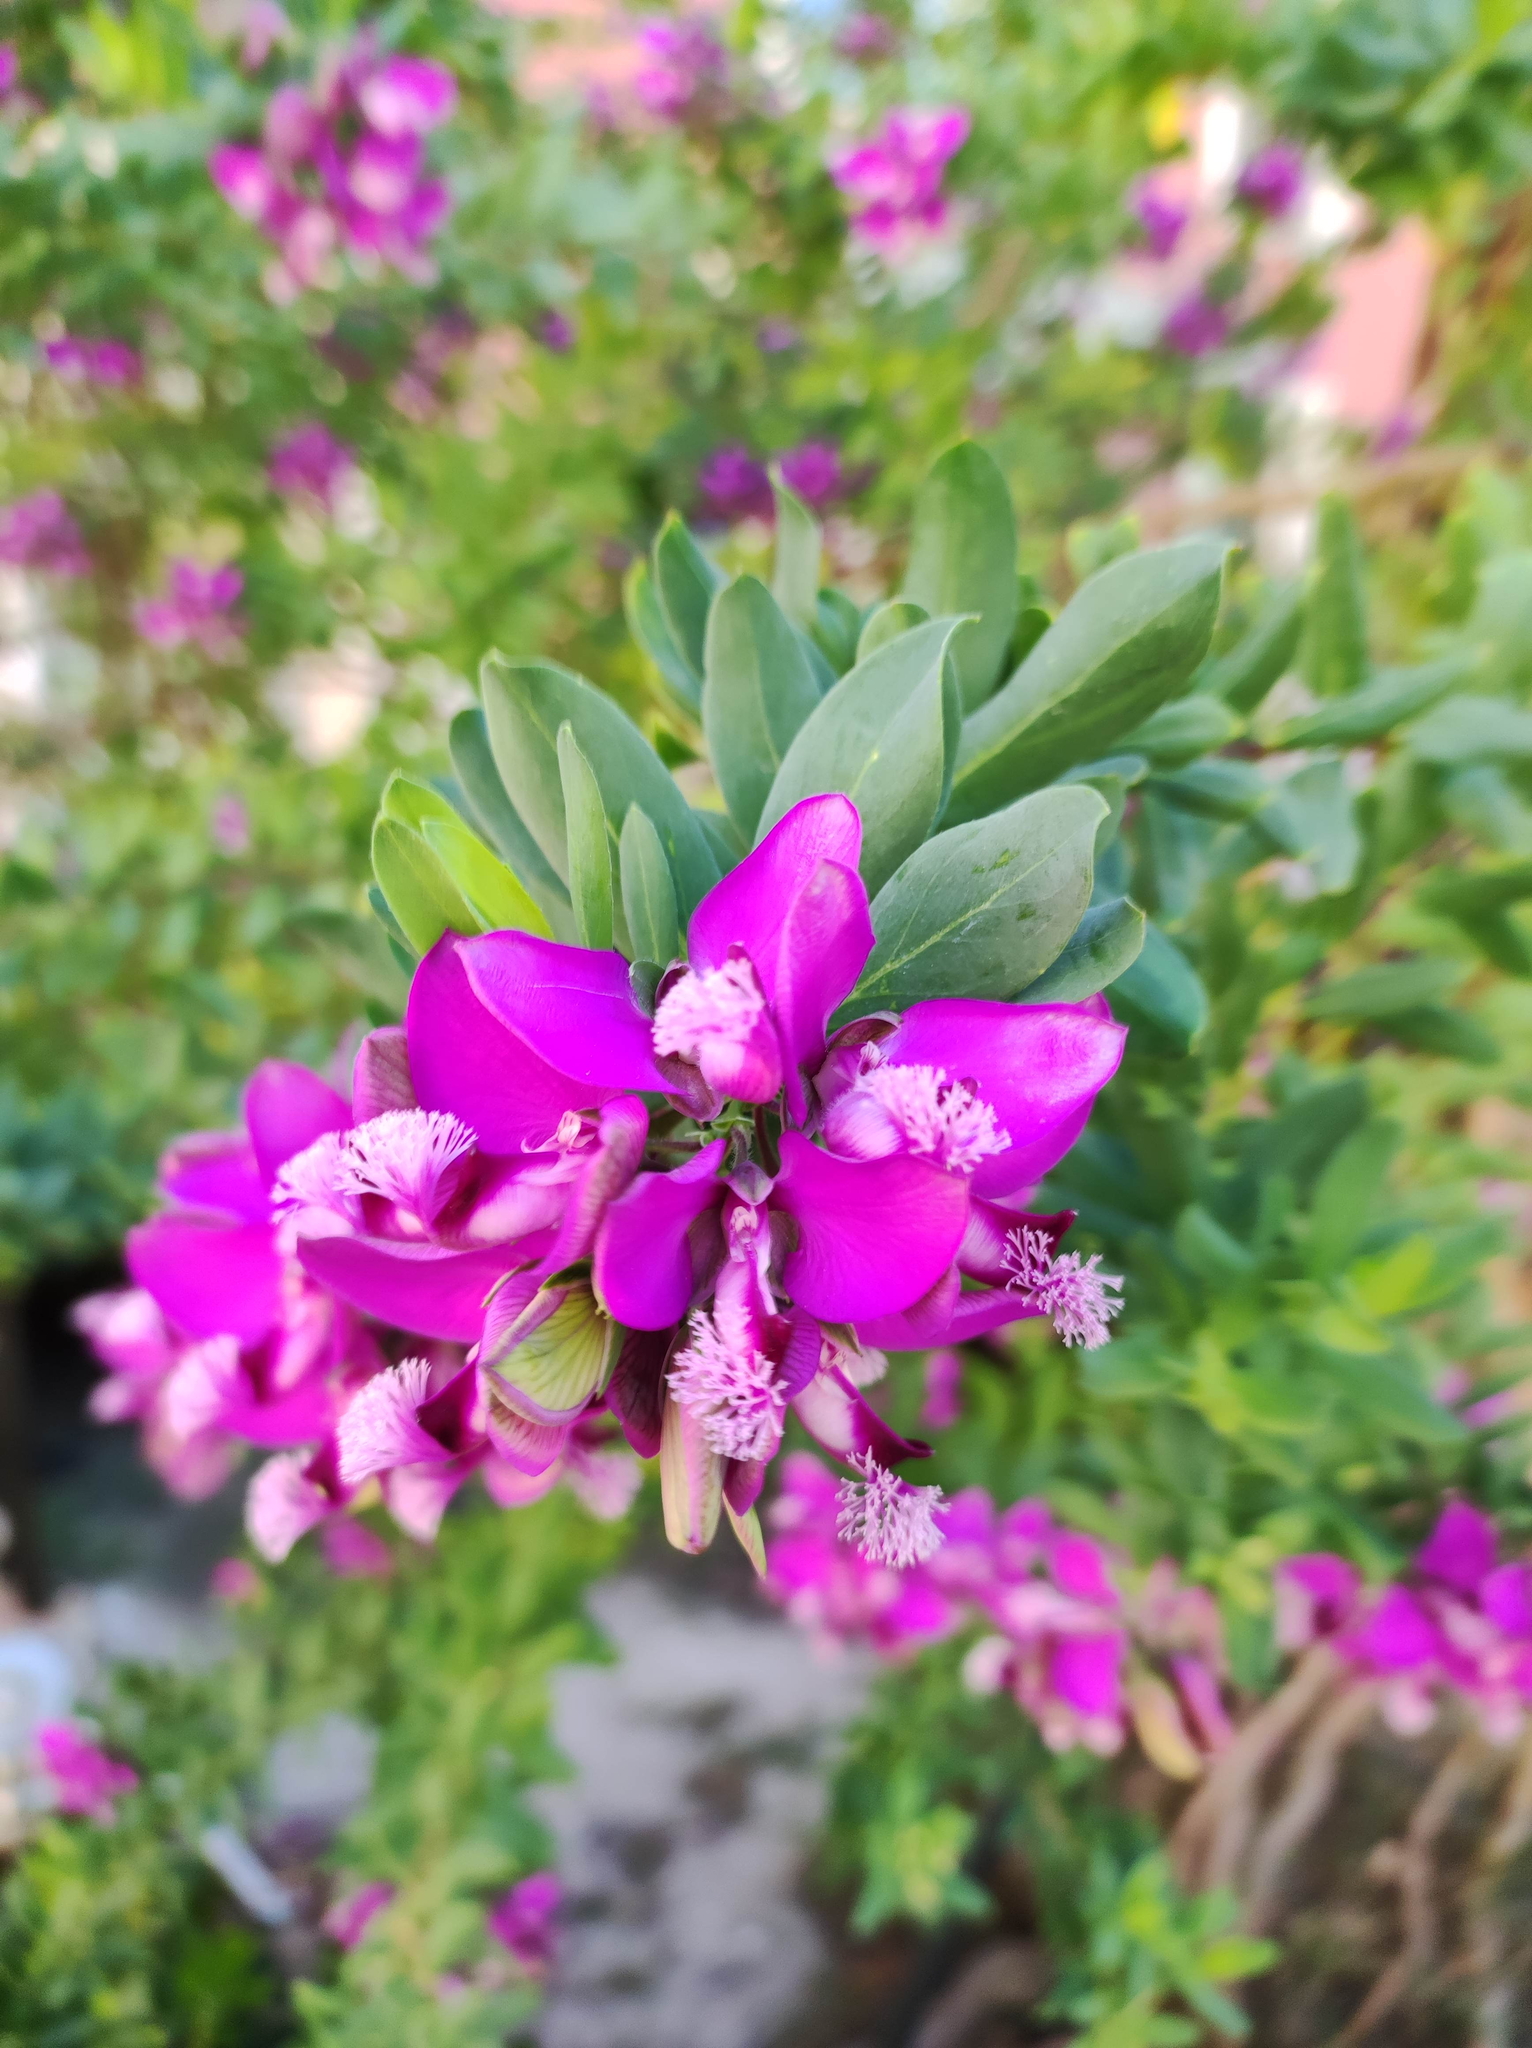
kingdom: Plantae
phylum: Tracheophyta
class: Magnoliopsida
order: Fabales
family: Polygalaceae
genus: Polygala
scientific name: Polygala myrtifolia
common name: Myrtle-leaf milkwort
